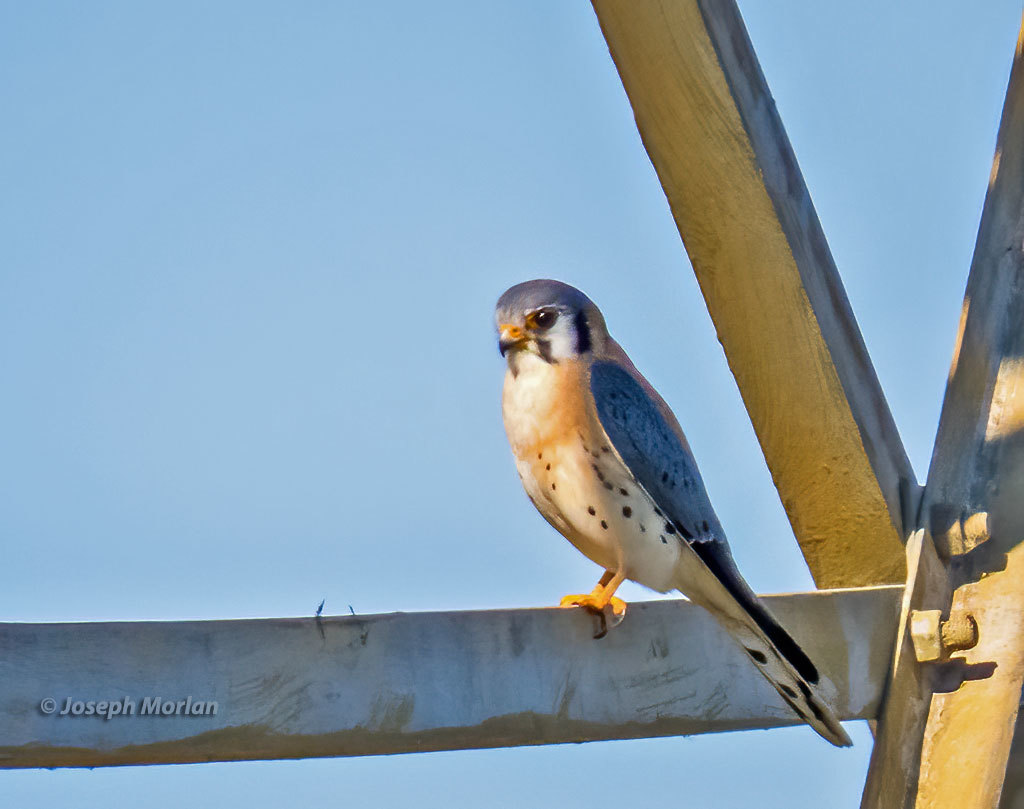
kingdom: Animalia
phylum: Chordata
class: Aves
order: Falconiformes
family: Falconidae
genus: Falco
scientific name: Falco sparverius
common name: American kestrel
